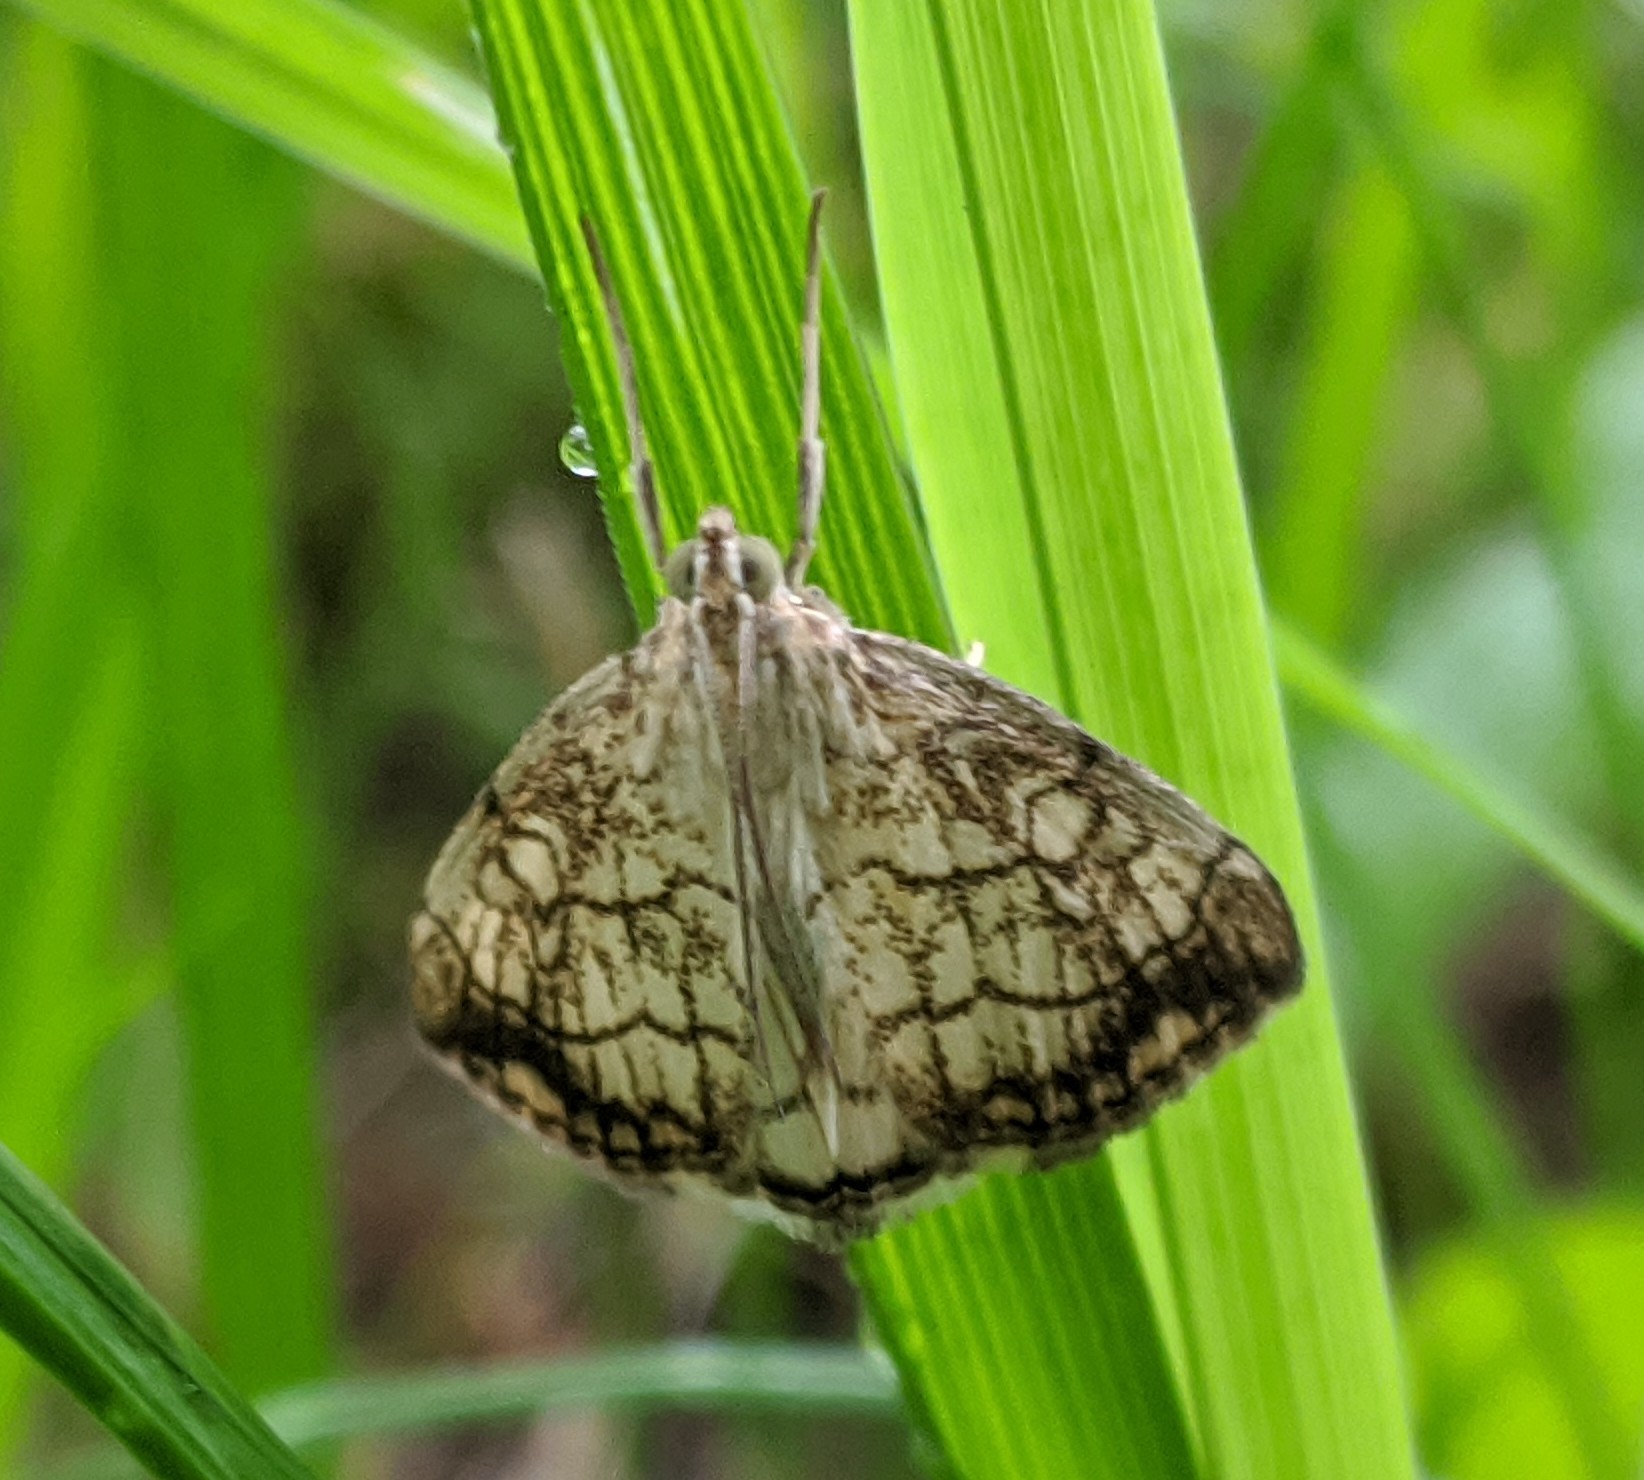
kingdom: Animalia
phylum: Arthropoda
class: Insecta
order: Lepidoptera
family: Crambidae
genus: Evergestis
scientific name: Evergestis pallidata
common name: Chequered pearl
